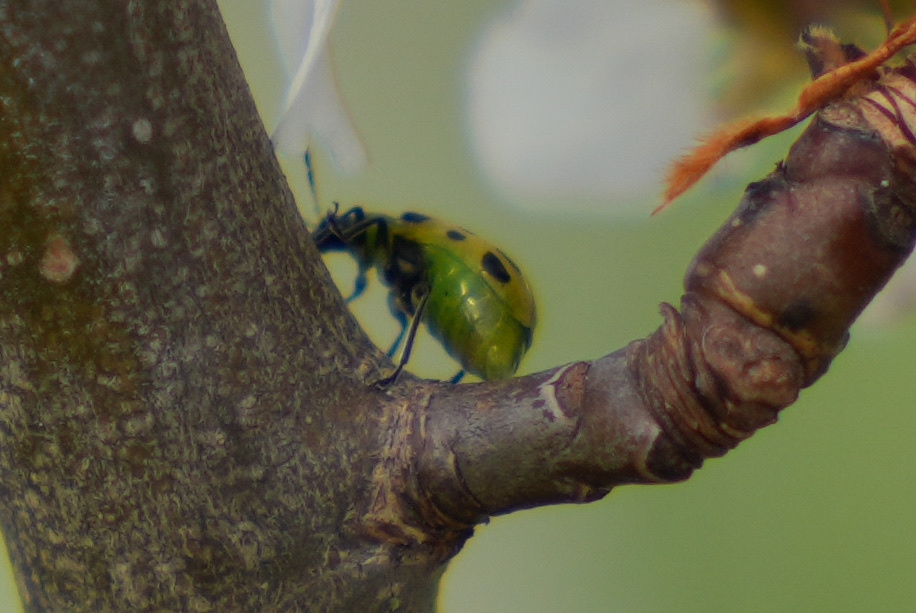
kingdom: Animalia
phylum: Arthropoda
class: Insecta
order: Coleoptera
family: Chrysomelidae
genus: Diabrotica
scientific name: Diabrotica undecimpunctata
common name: Spotted cucumber beetle
